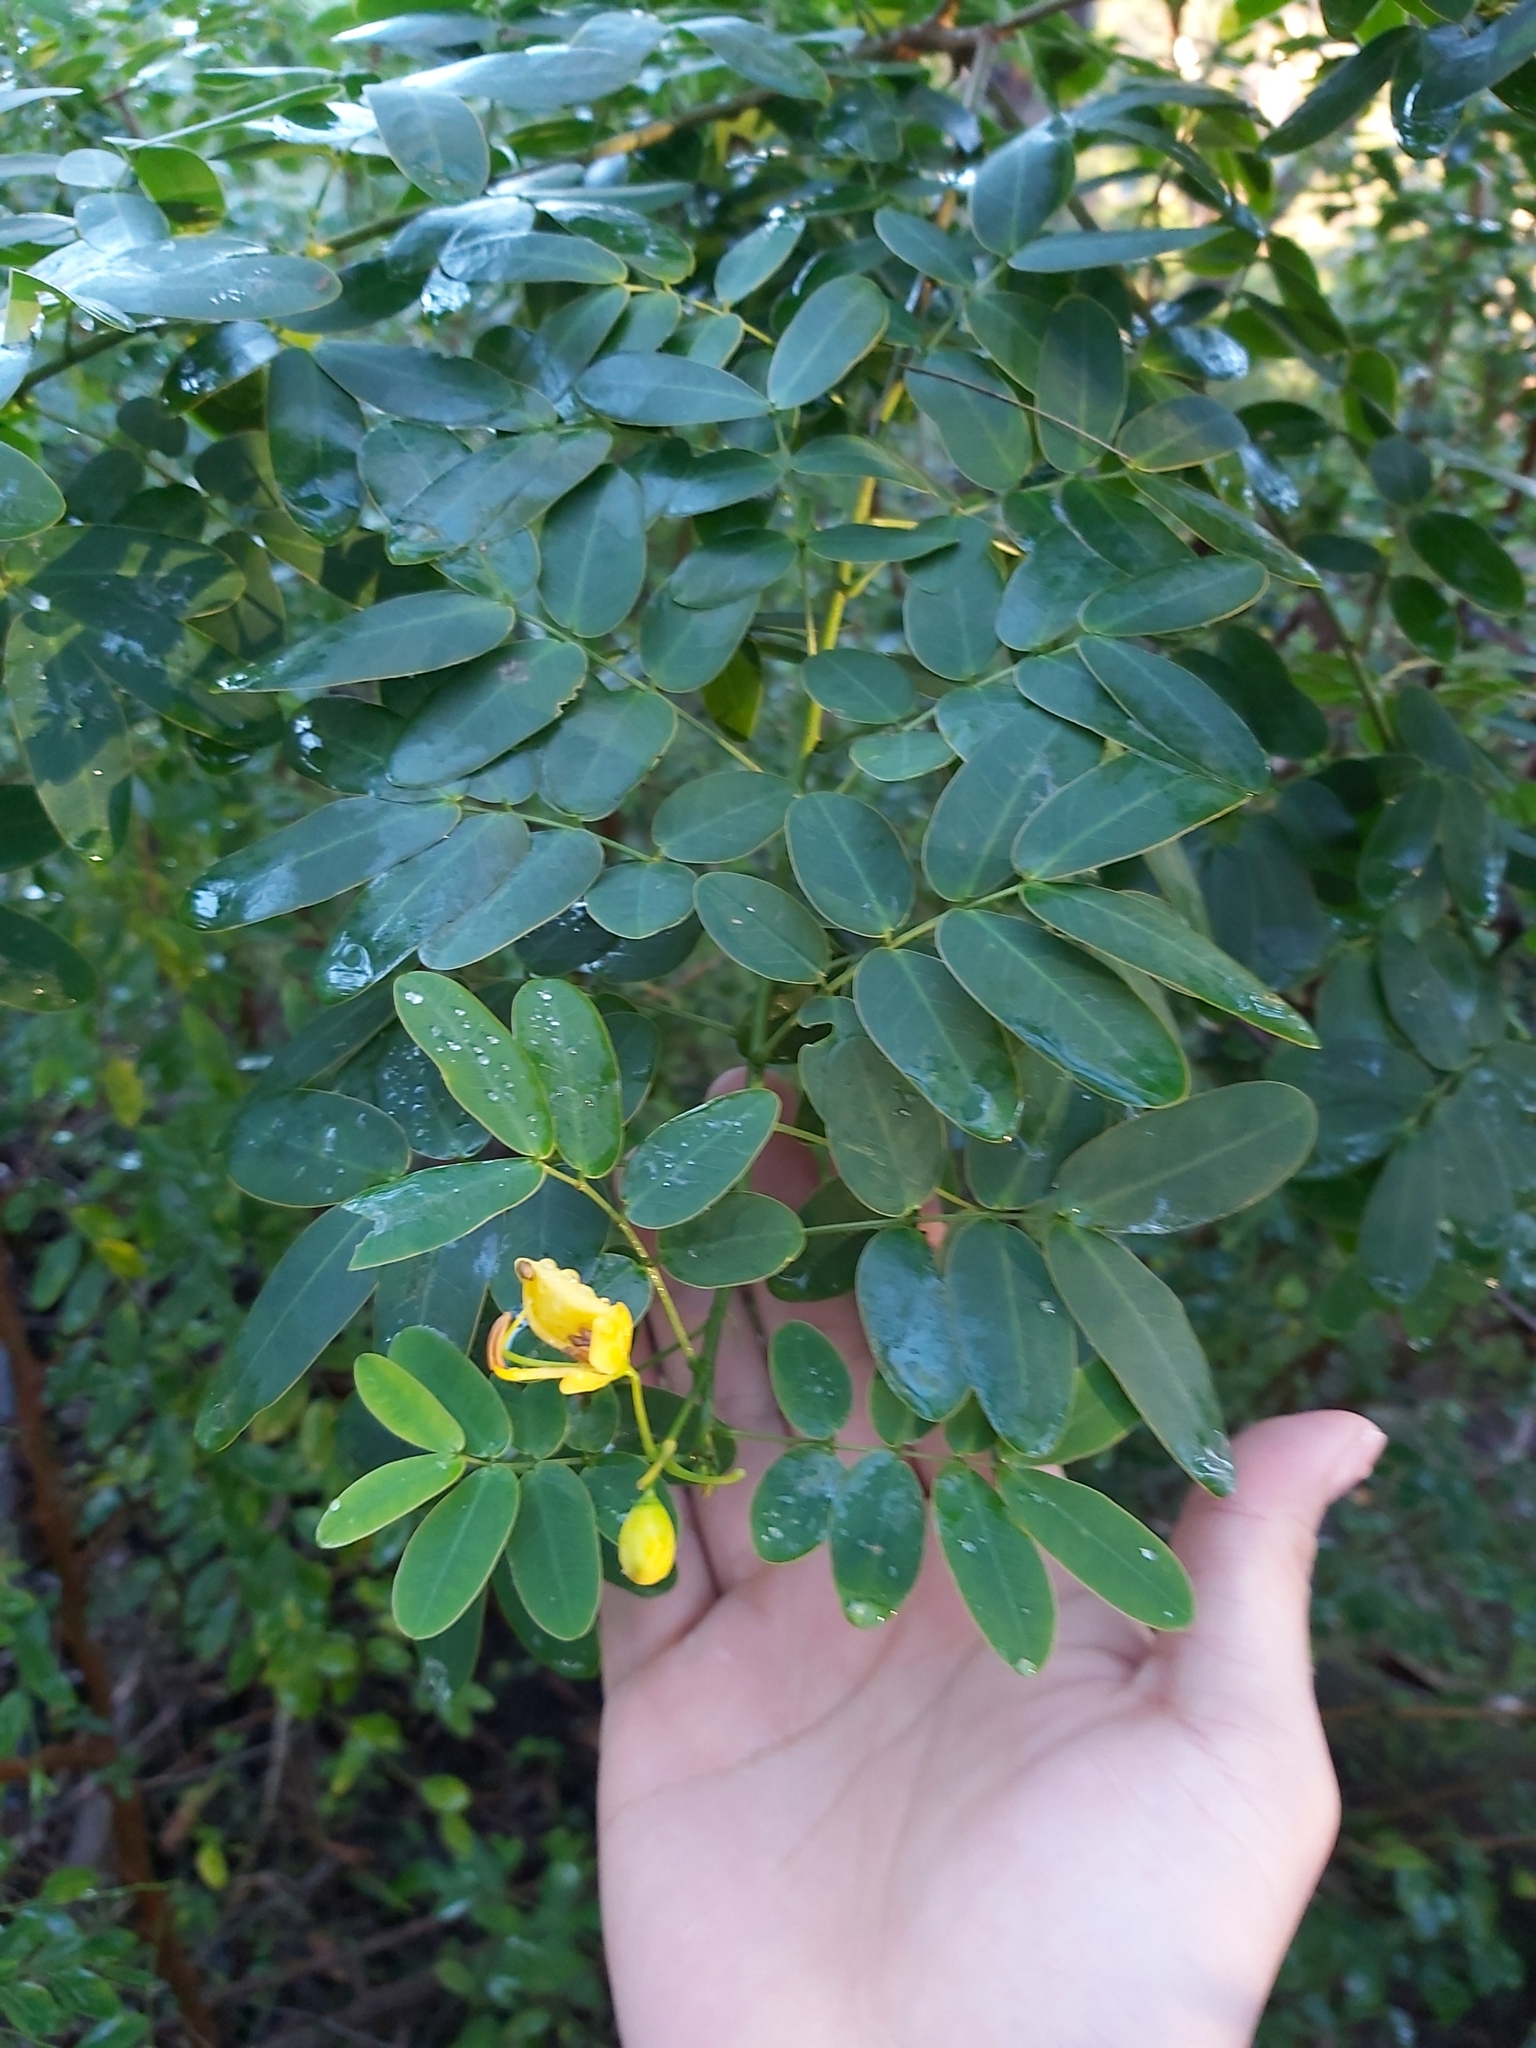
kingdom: Plantae
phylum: Tracheophyta
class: Magnoliopsida
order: Fabales
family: Fabaceae
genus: Senna
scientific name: Senna pendula
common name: Easter cassia
